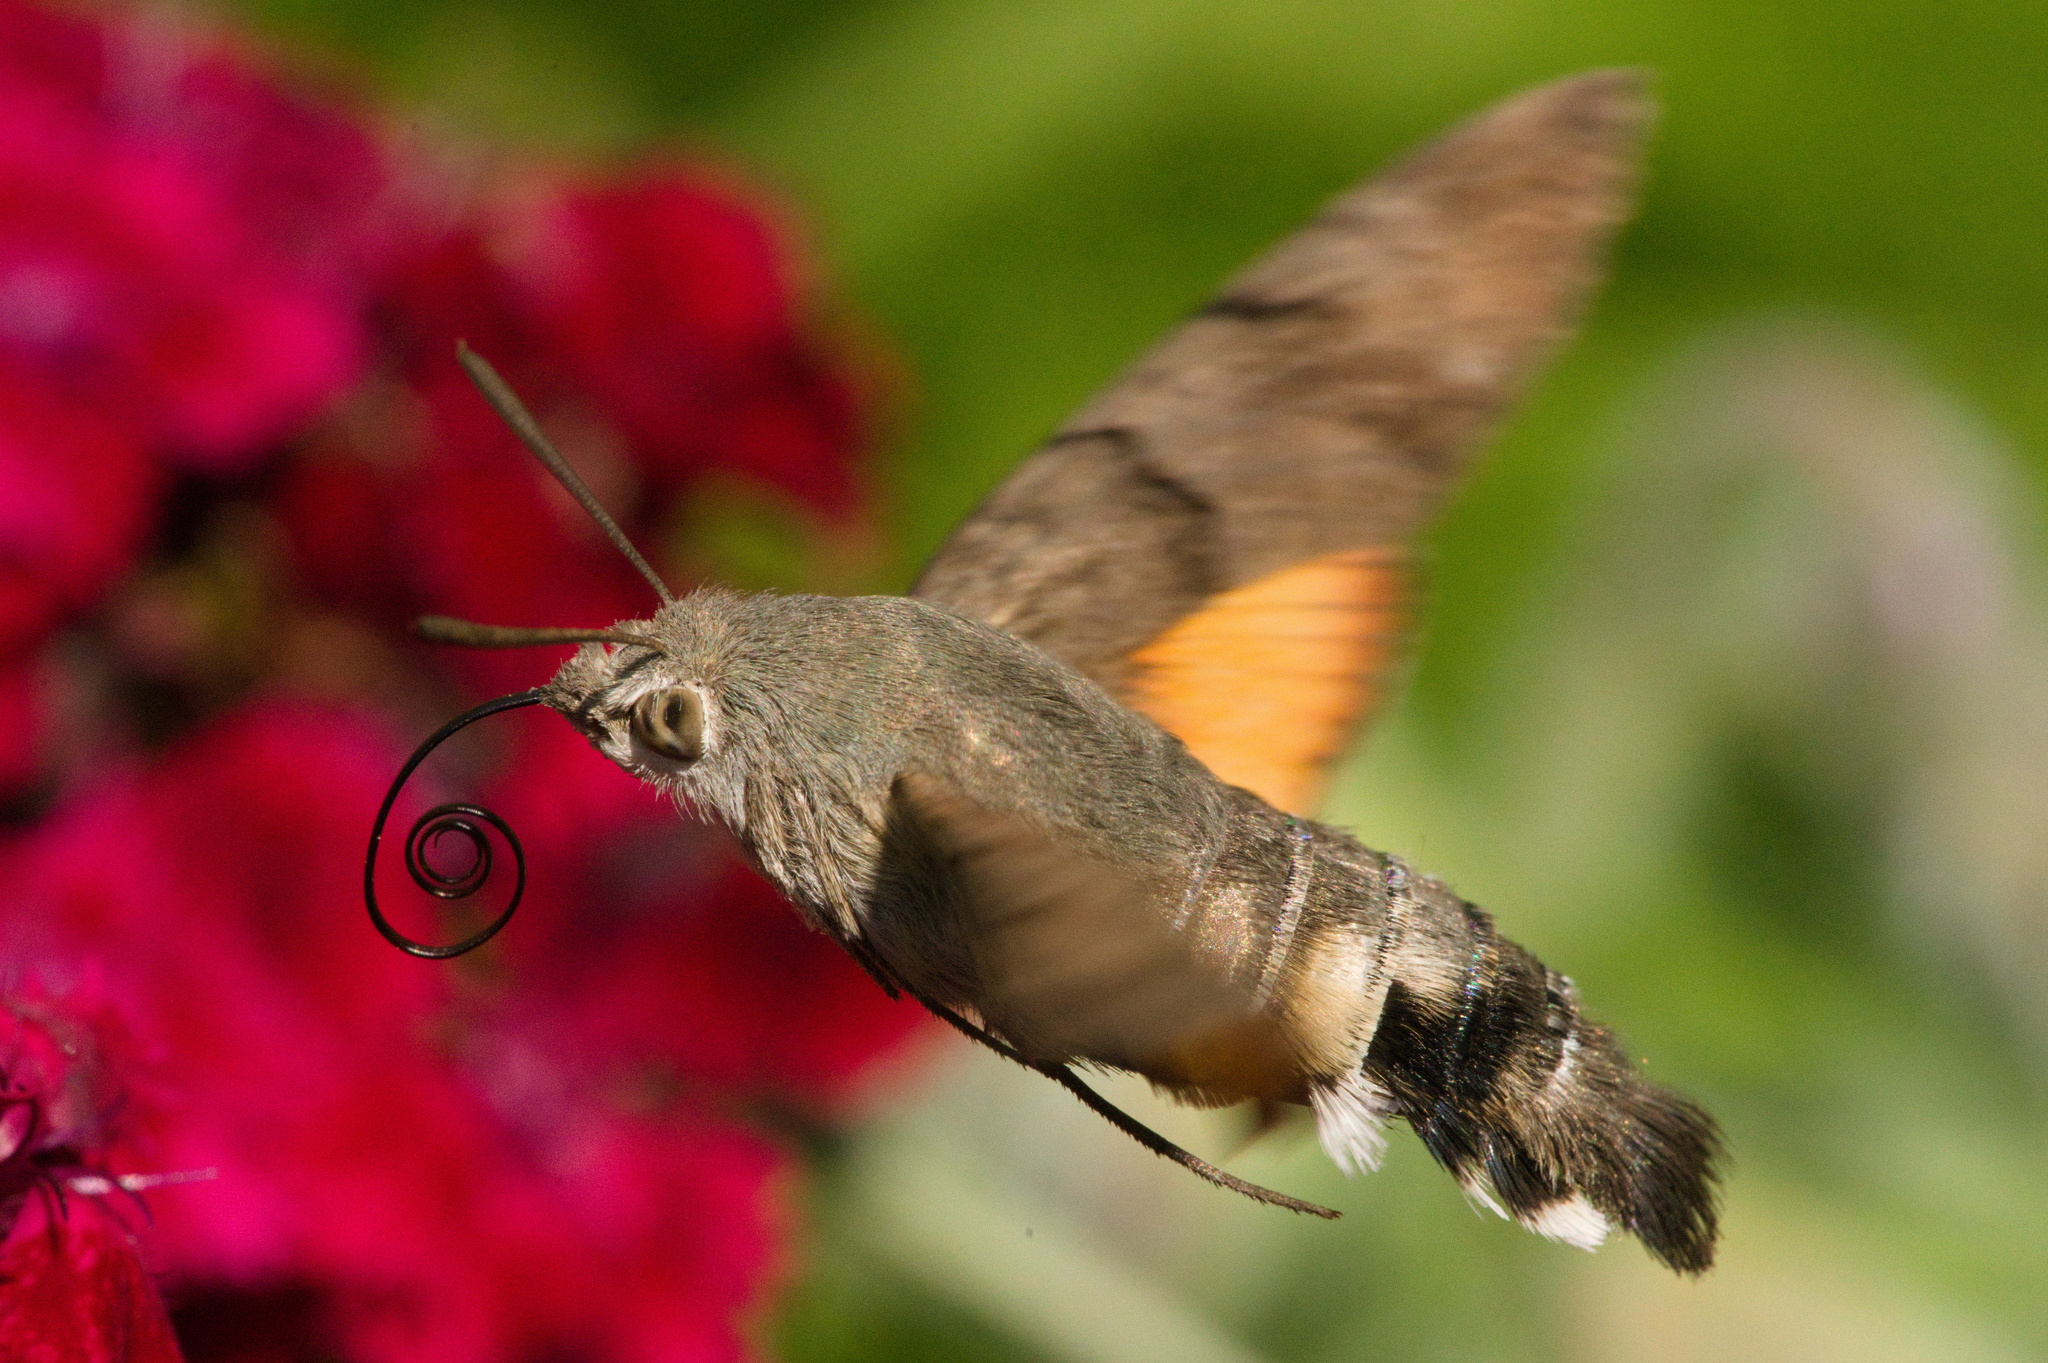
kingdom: Animalia
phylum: Arthropoda
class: Insecta
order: Lepidoptera
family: Sphingidae
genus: Macroglossum
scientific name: Macroglossum stellatarum
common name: Humming-bird hawk-moth
